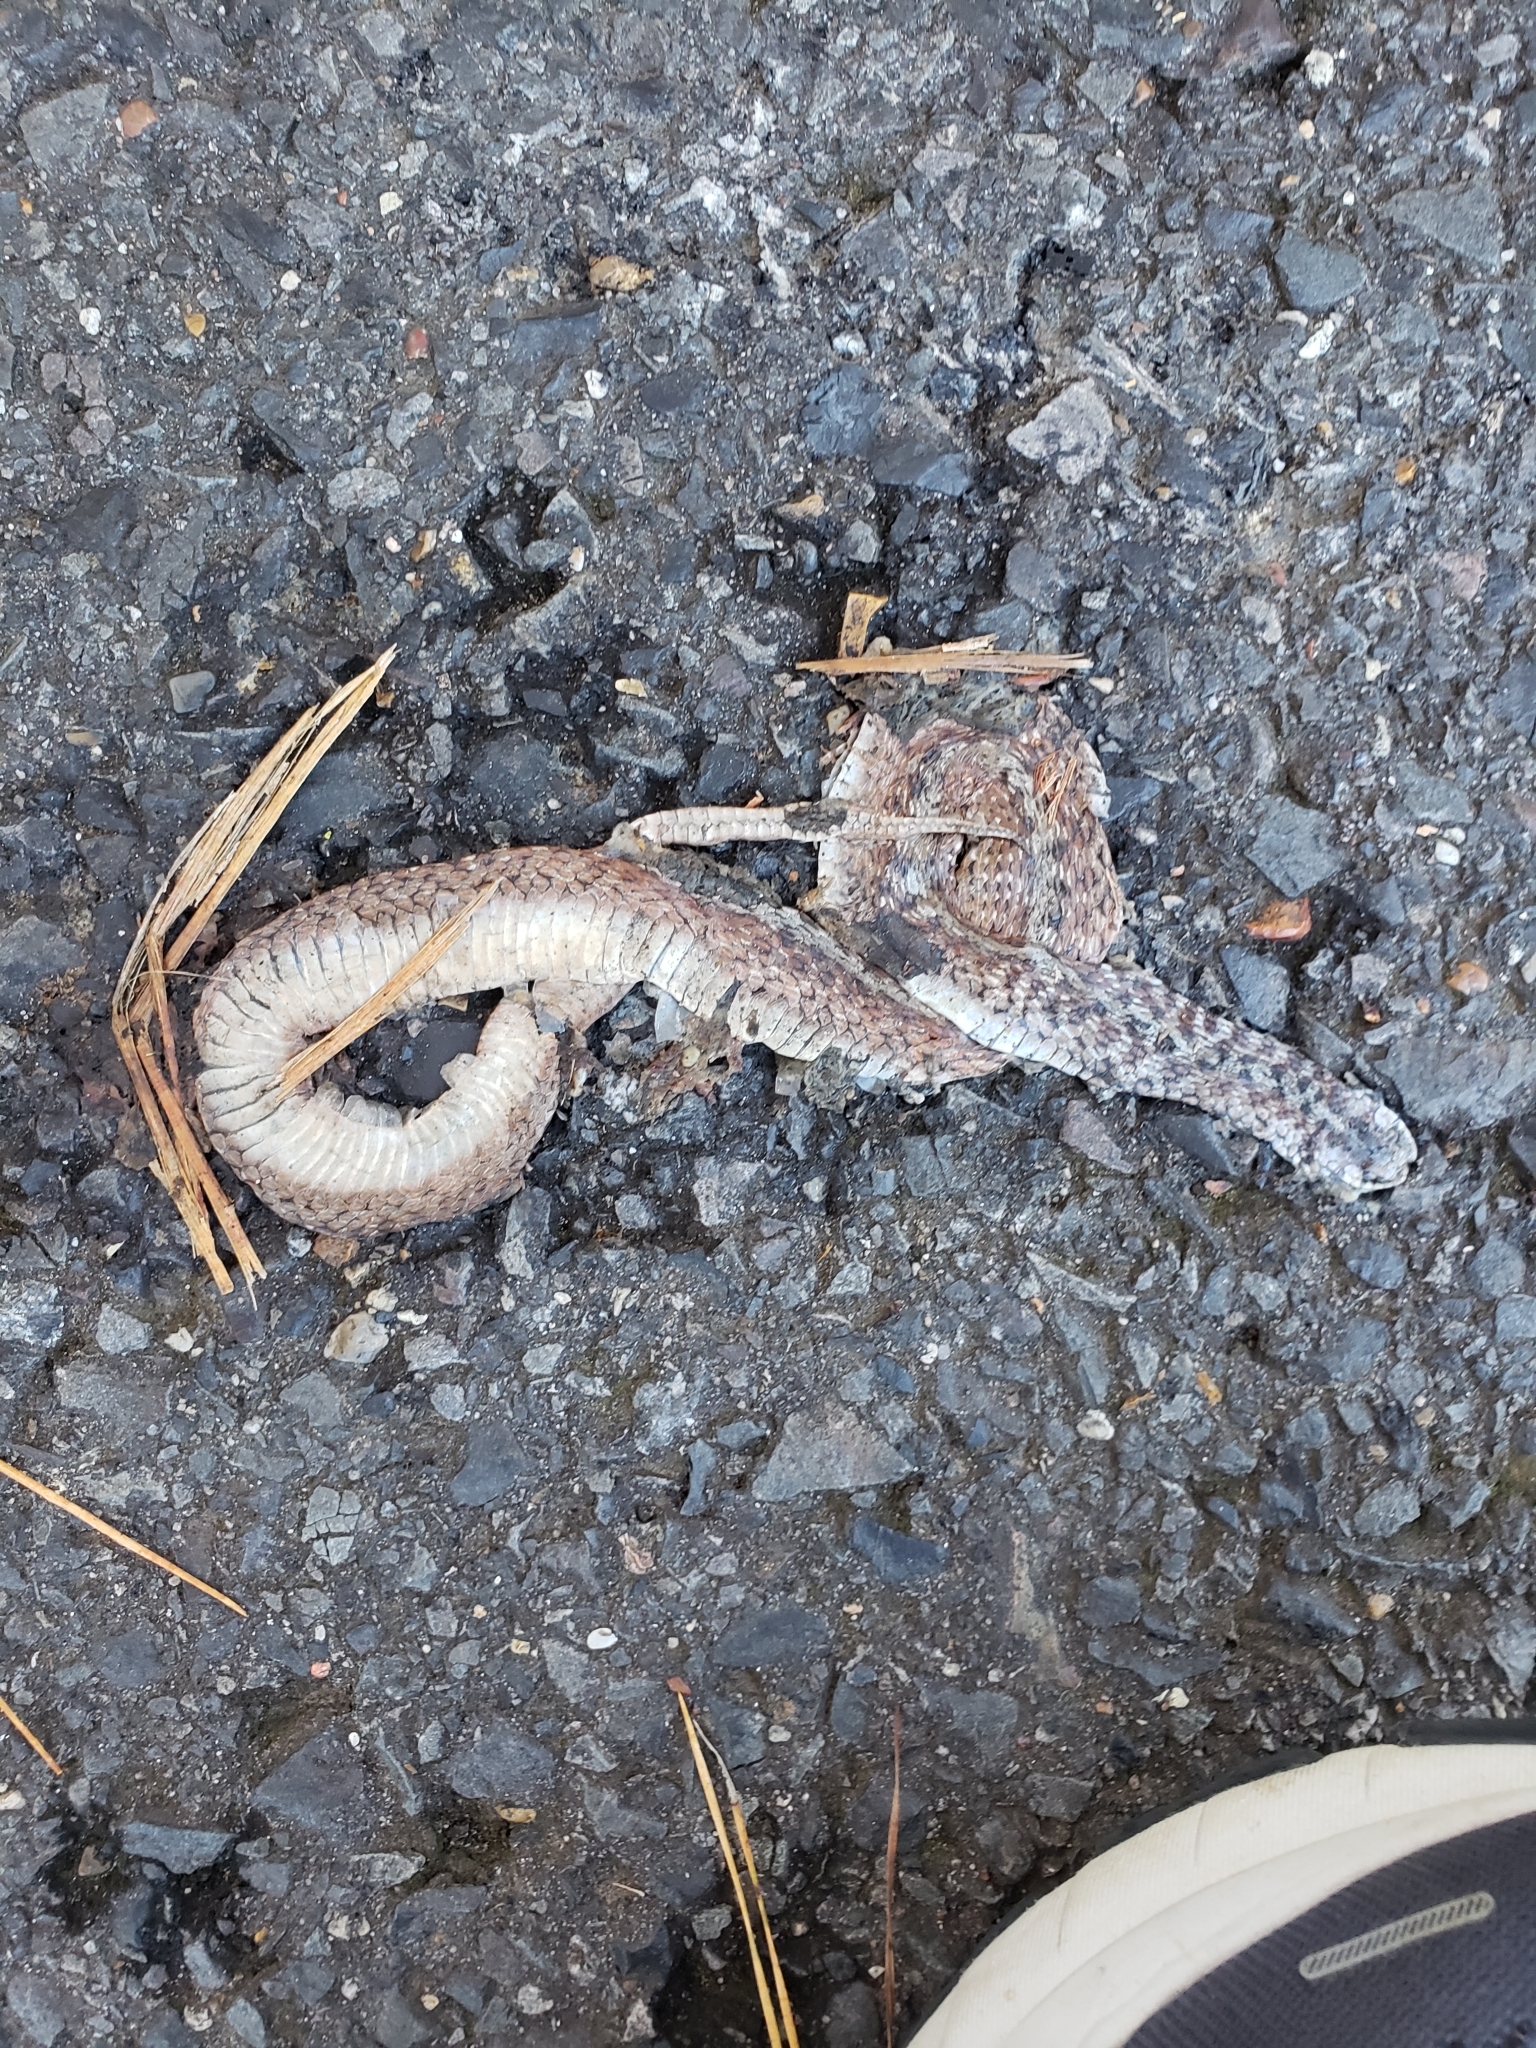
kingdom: Animalia
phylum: Chordata
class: Squamata
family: Colubridae
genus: Storeria
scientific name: Storeria dekayi
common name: (dekay’s) brown snake
